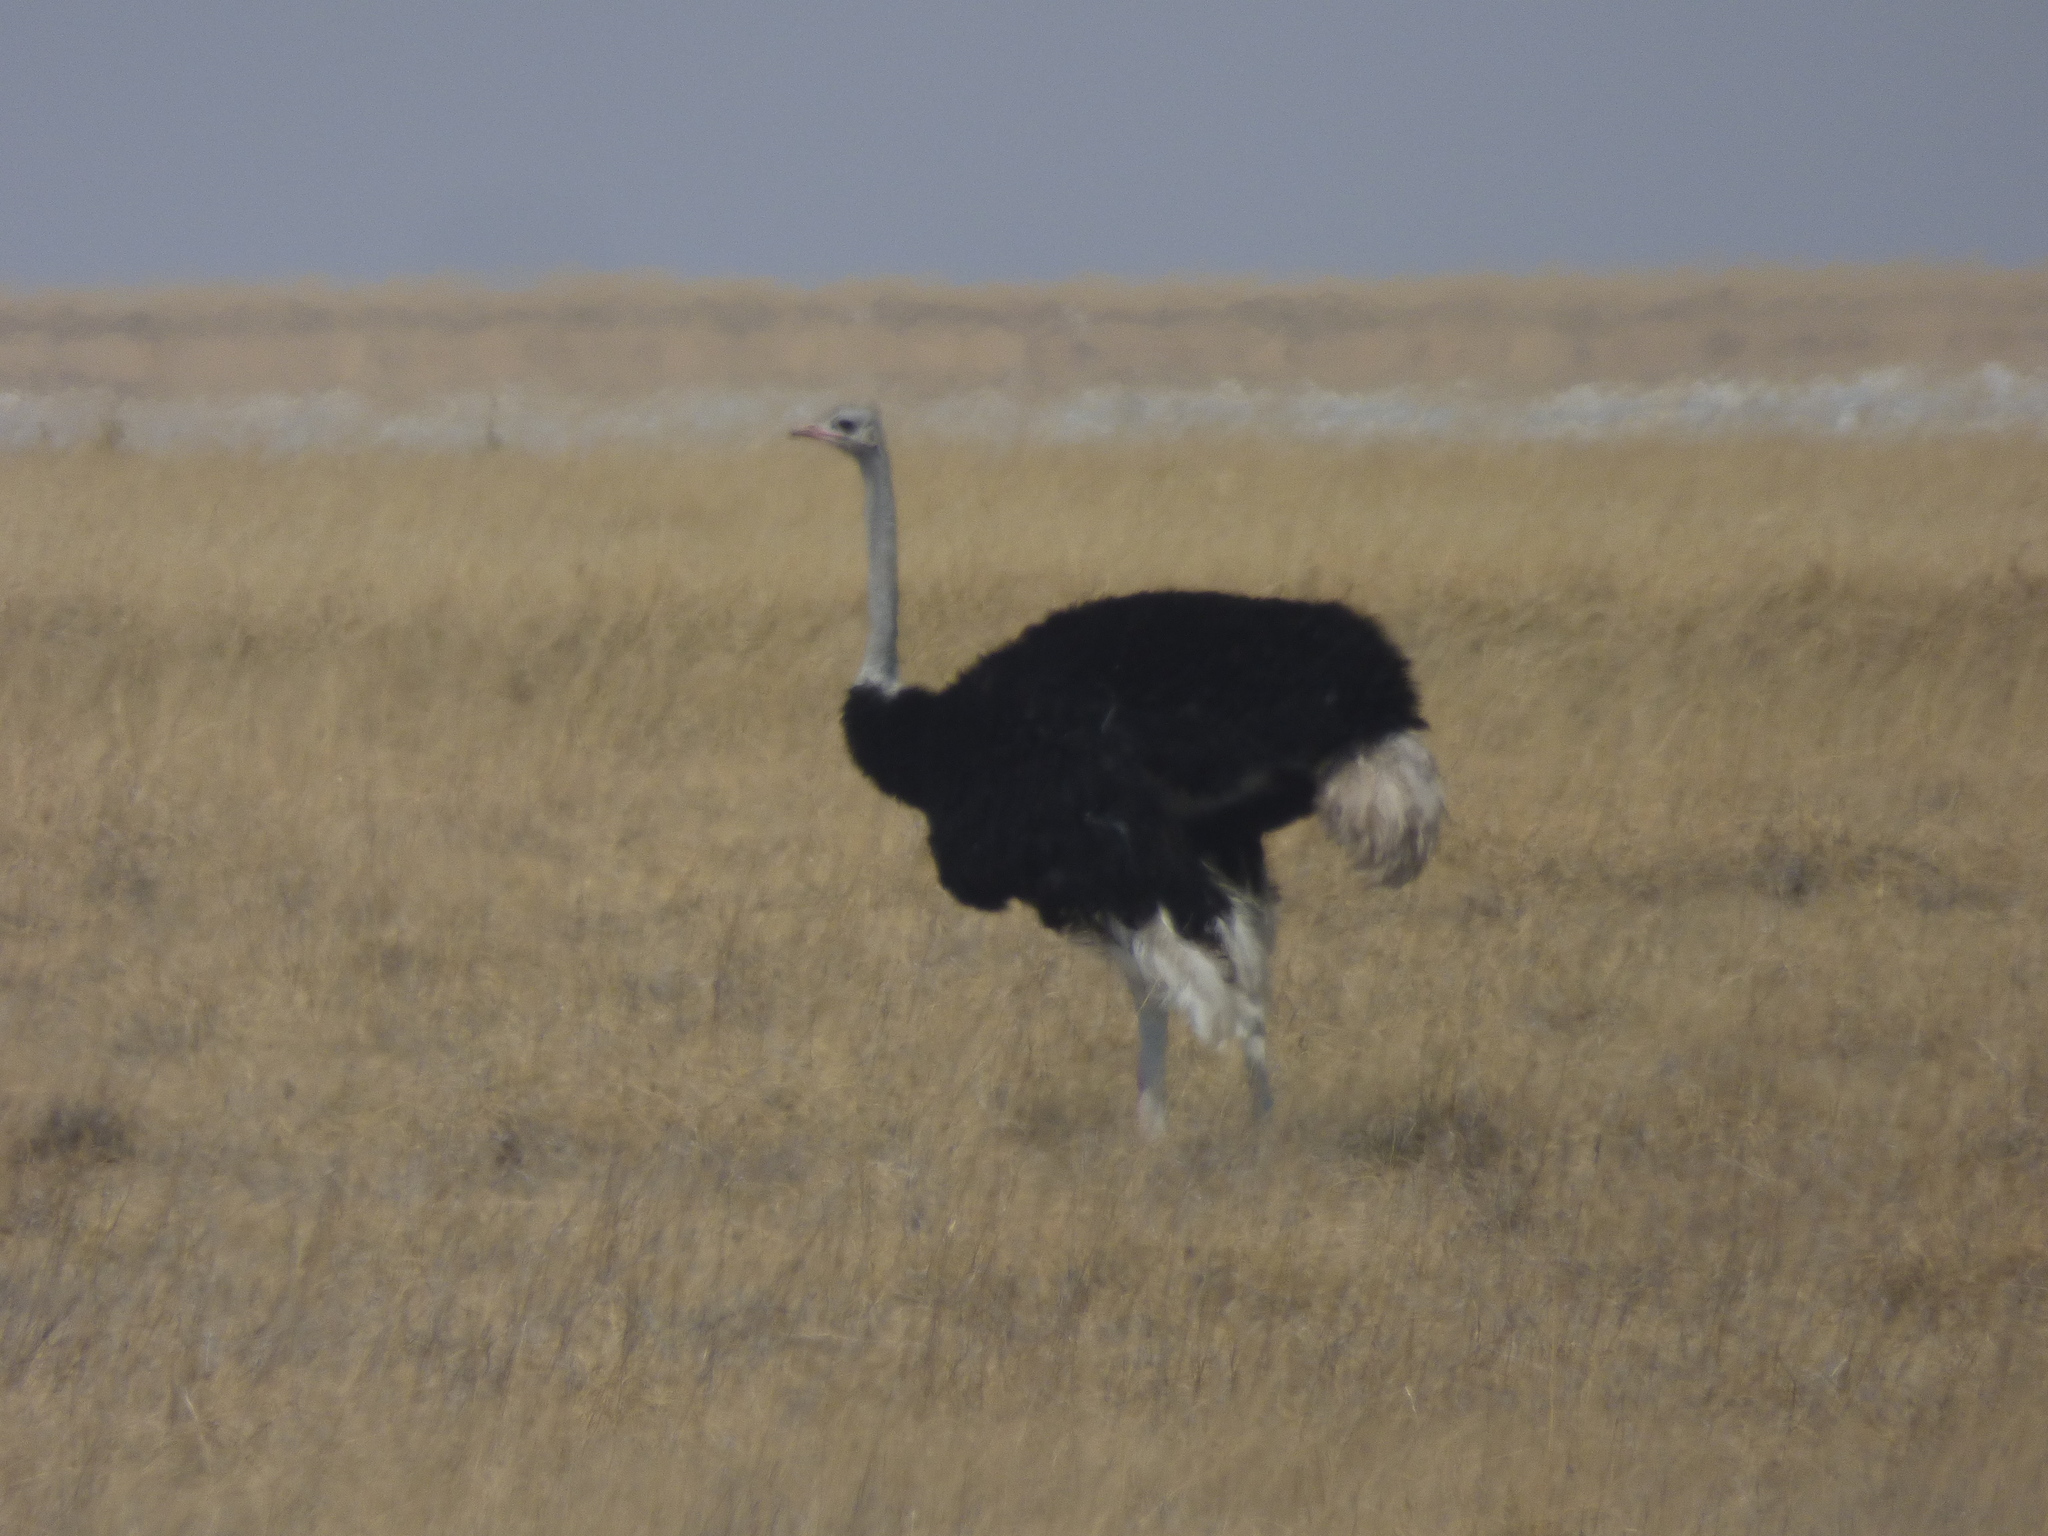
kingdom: Animalia
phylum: Chordata
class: Aves
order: Struthioniformes
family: Struthionidae
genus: Struthio
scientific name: Struthio camelus
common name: Common ostrich
